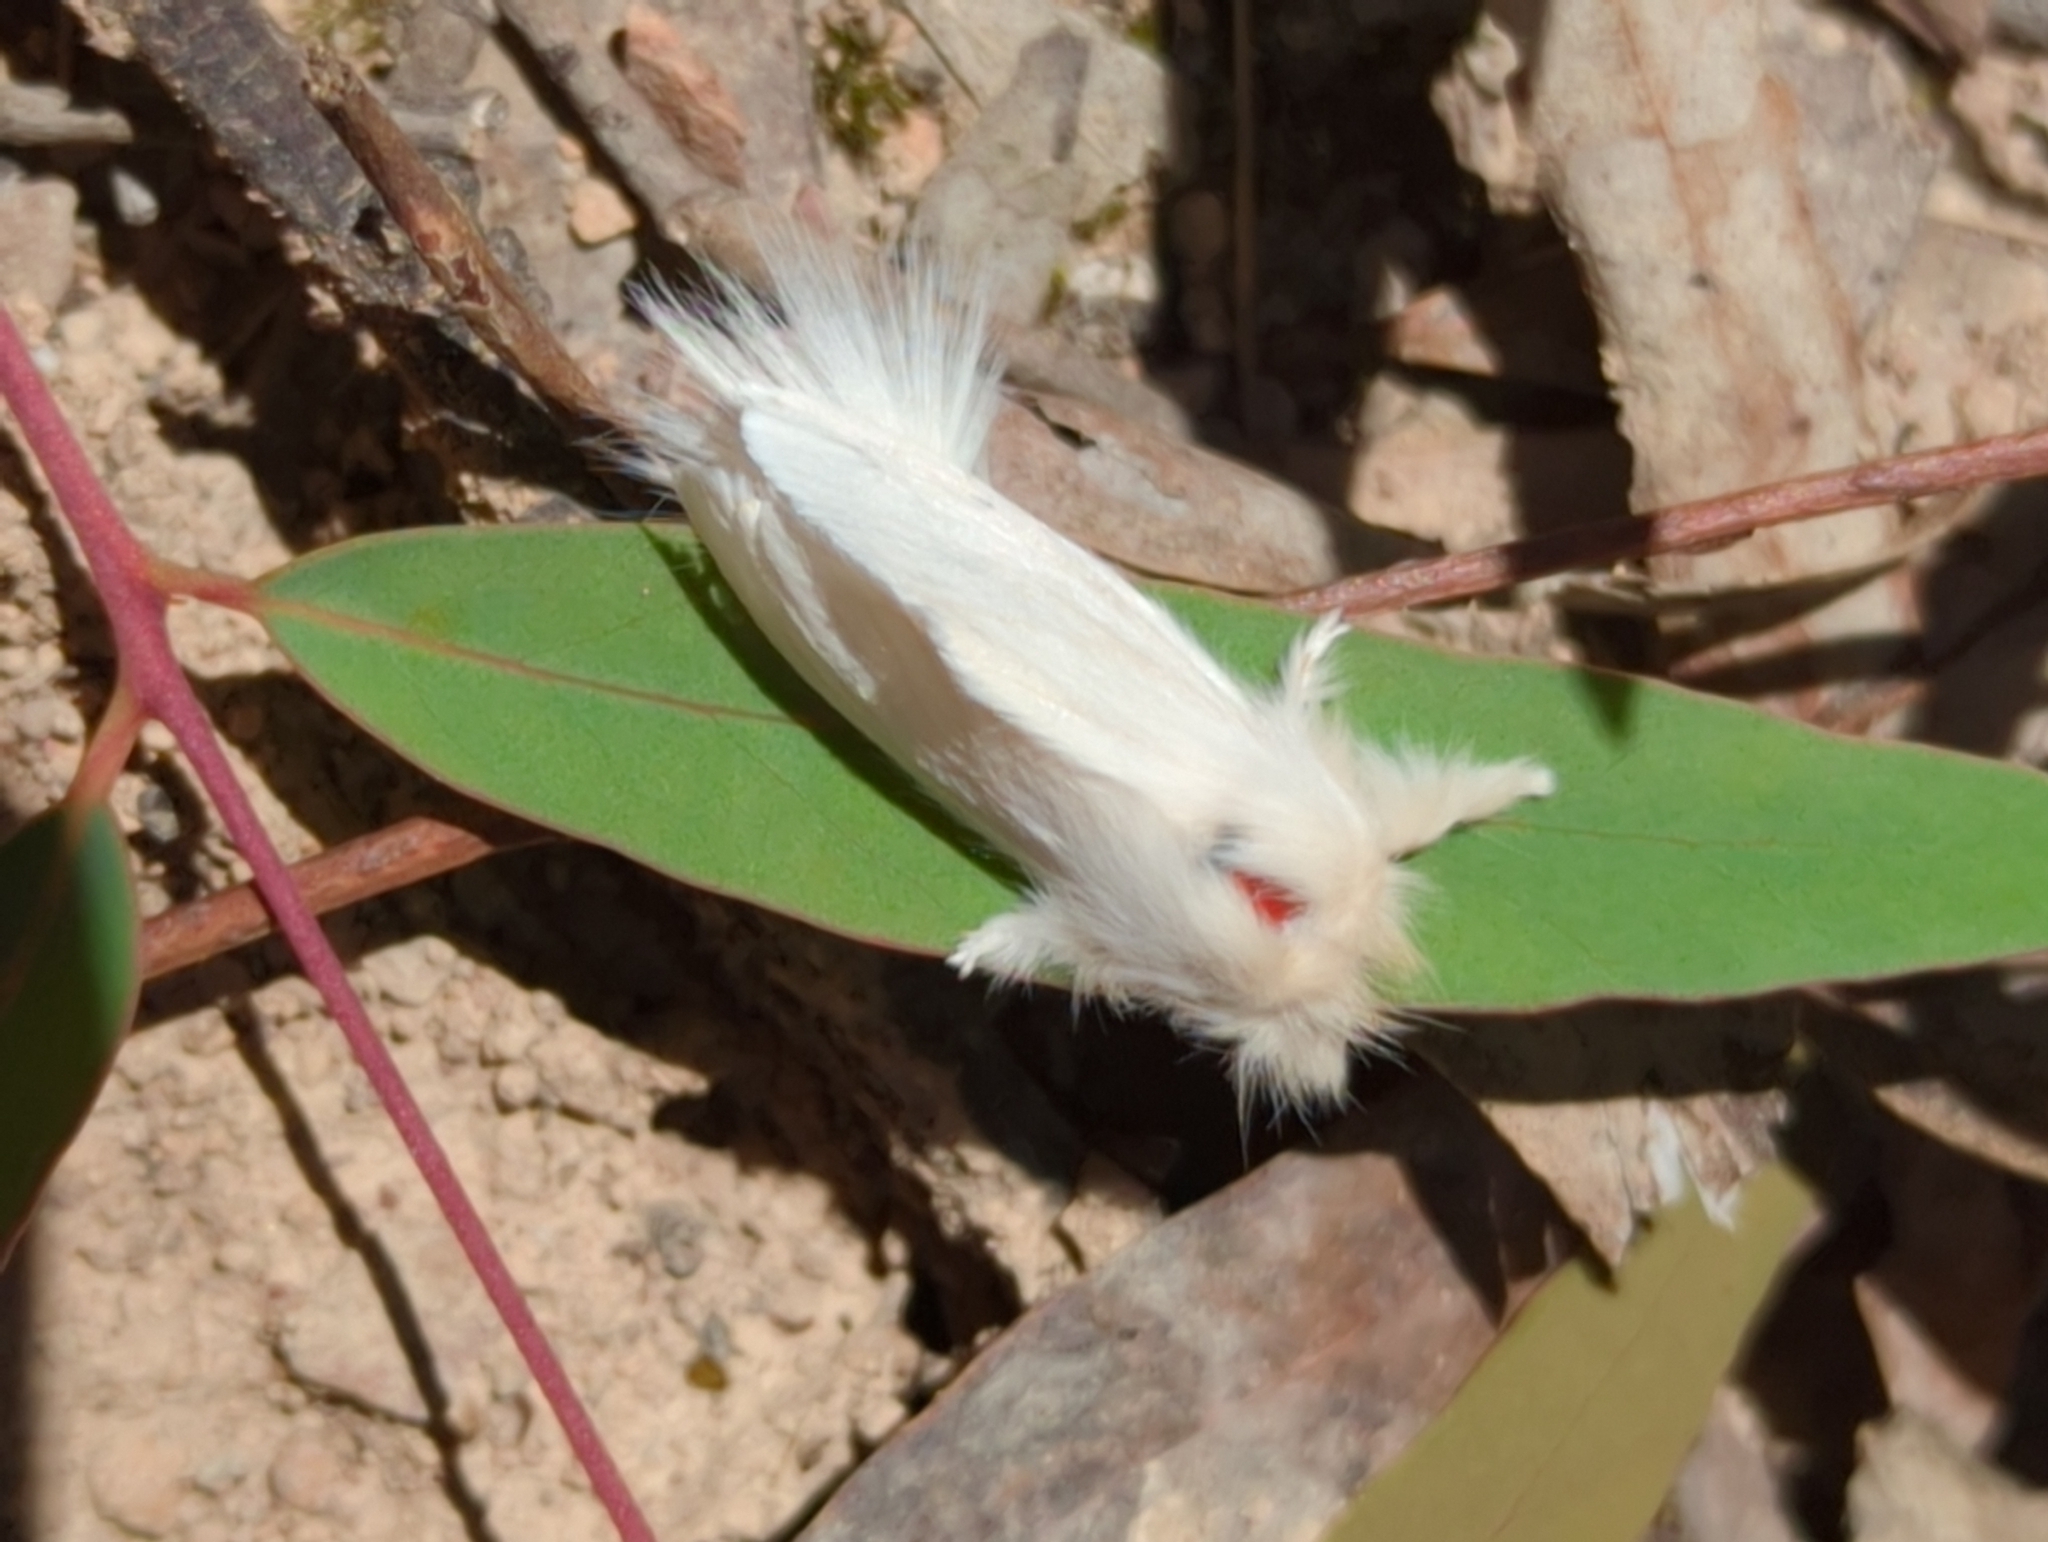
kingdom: Animalia
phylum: Arthropoda
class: Insecta
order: Lepidoptera
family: Notodontidae
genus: Trichiocercus
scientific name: Trichiocercus sparshalli
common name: Long-tailed satin
